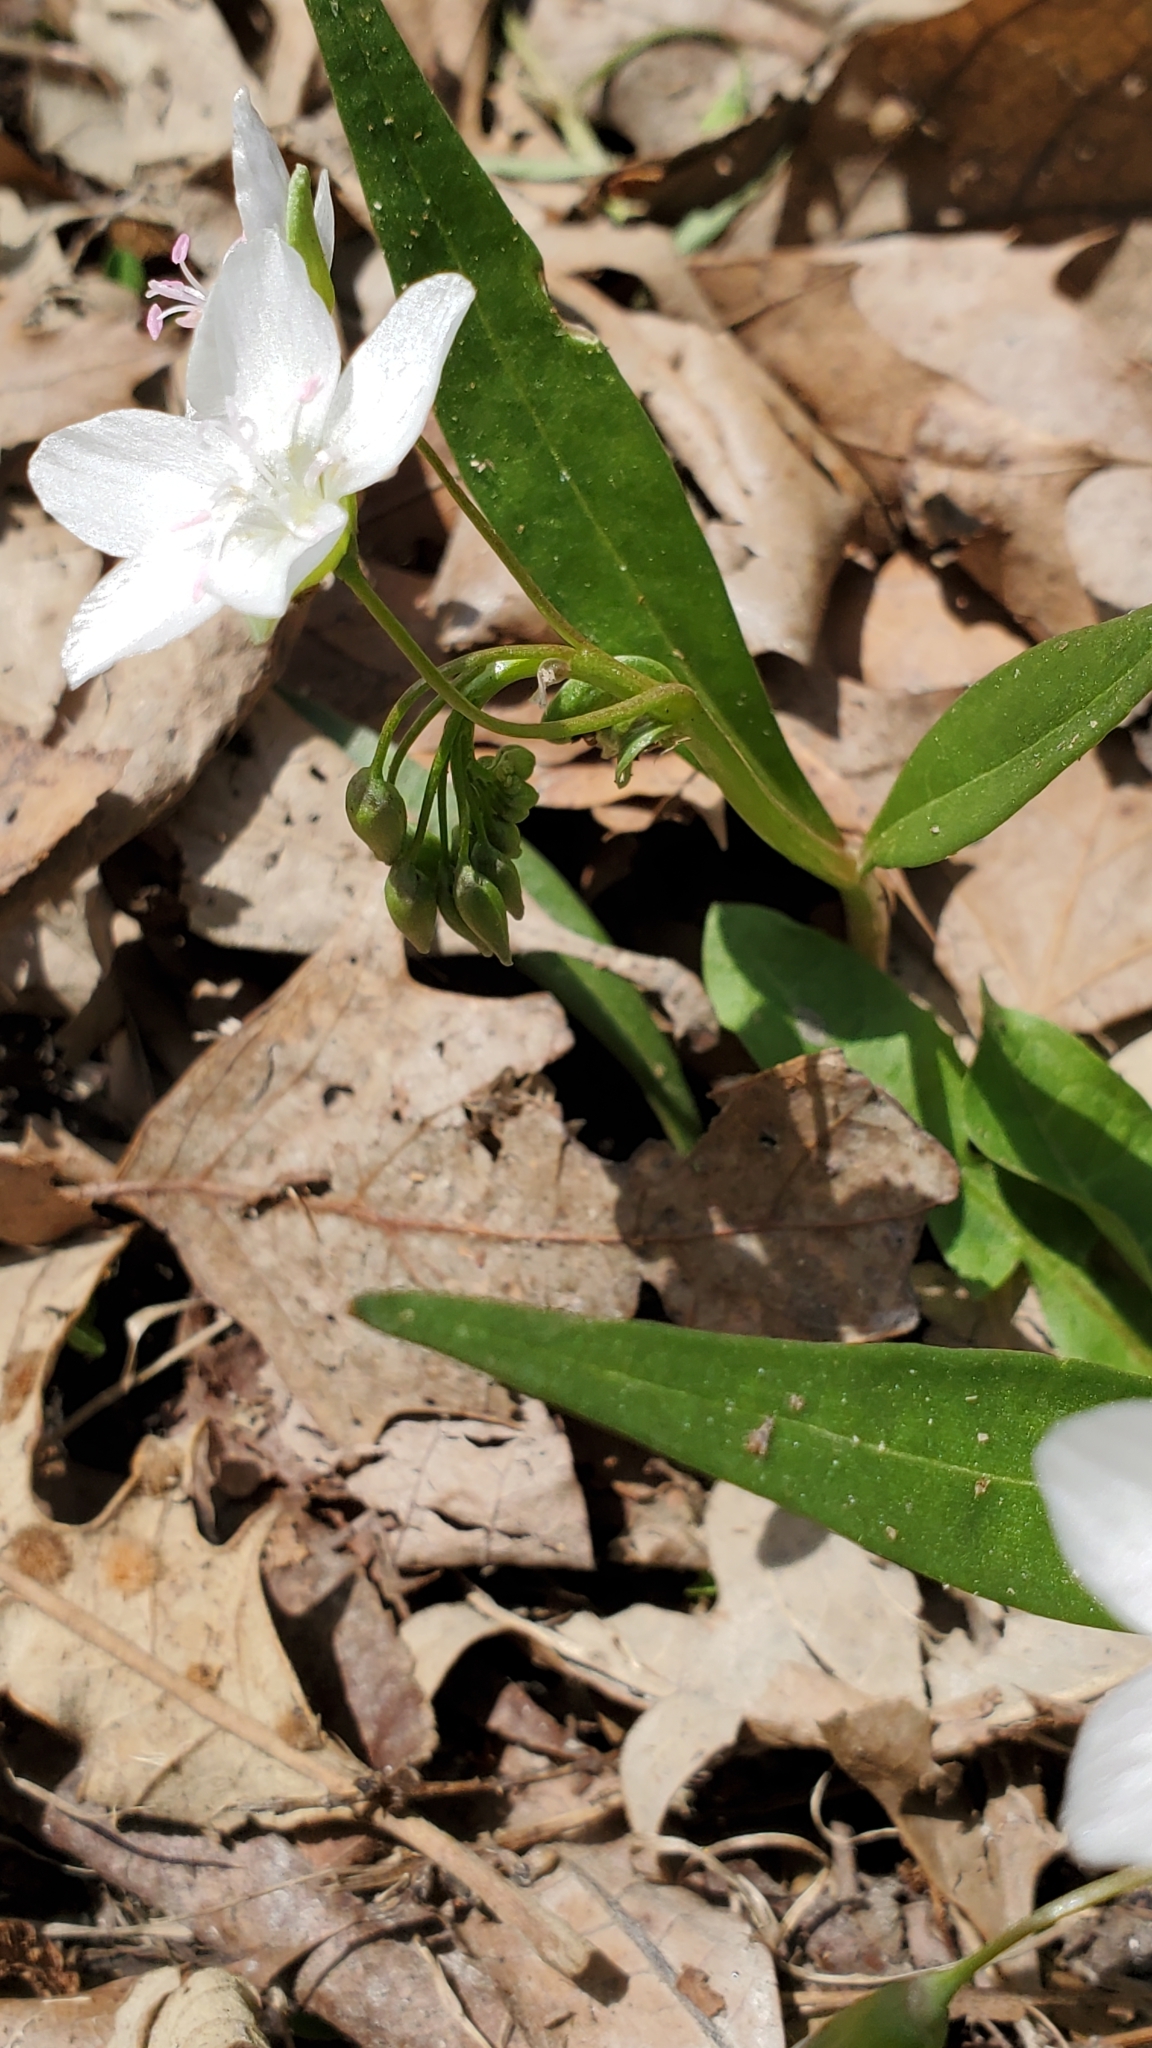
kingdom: Plantae
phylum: Tracheophyta
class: Magnoliopsida
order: Caryophyllales
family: Montiaceae
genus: Claytonia
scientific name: Claytonia virginica
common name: Virginia springbeauty
